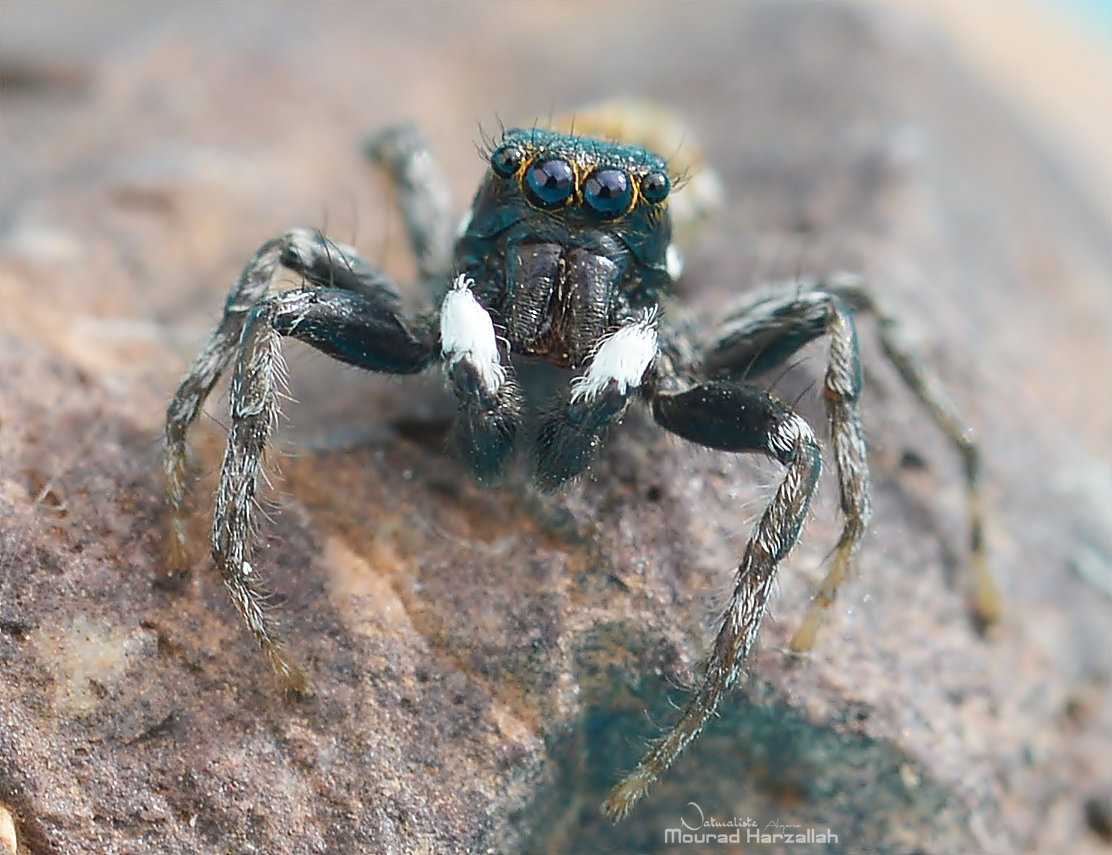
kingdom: Animalia
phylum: Arthropoda
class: Arachnida
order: Araneae
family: Salticidae
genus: Menemerus
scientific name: Menemerus semilimbatus
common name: Jumping spider
